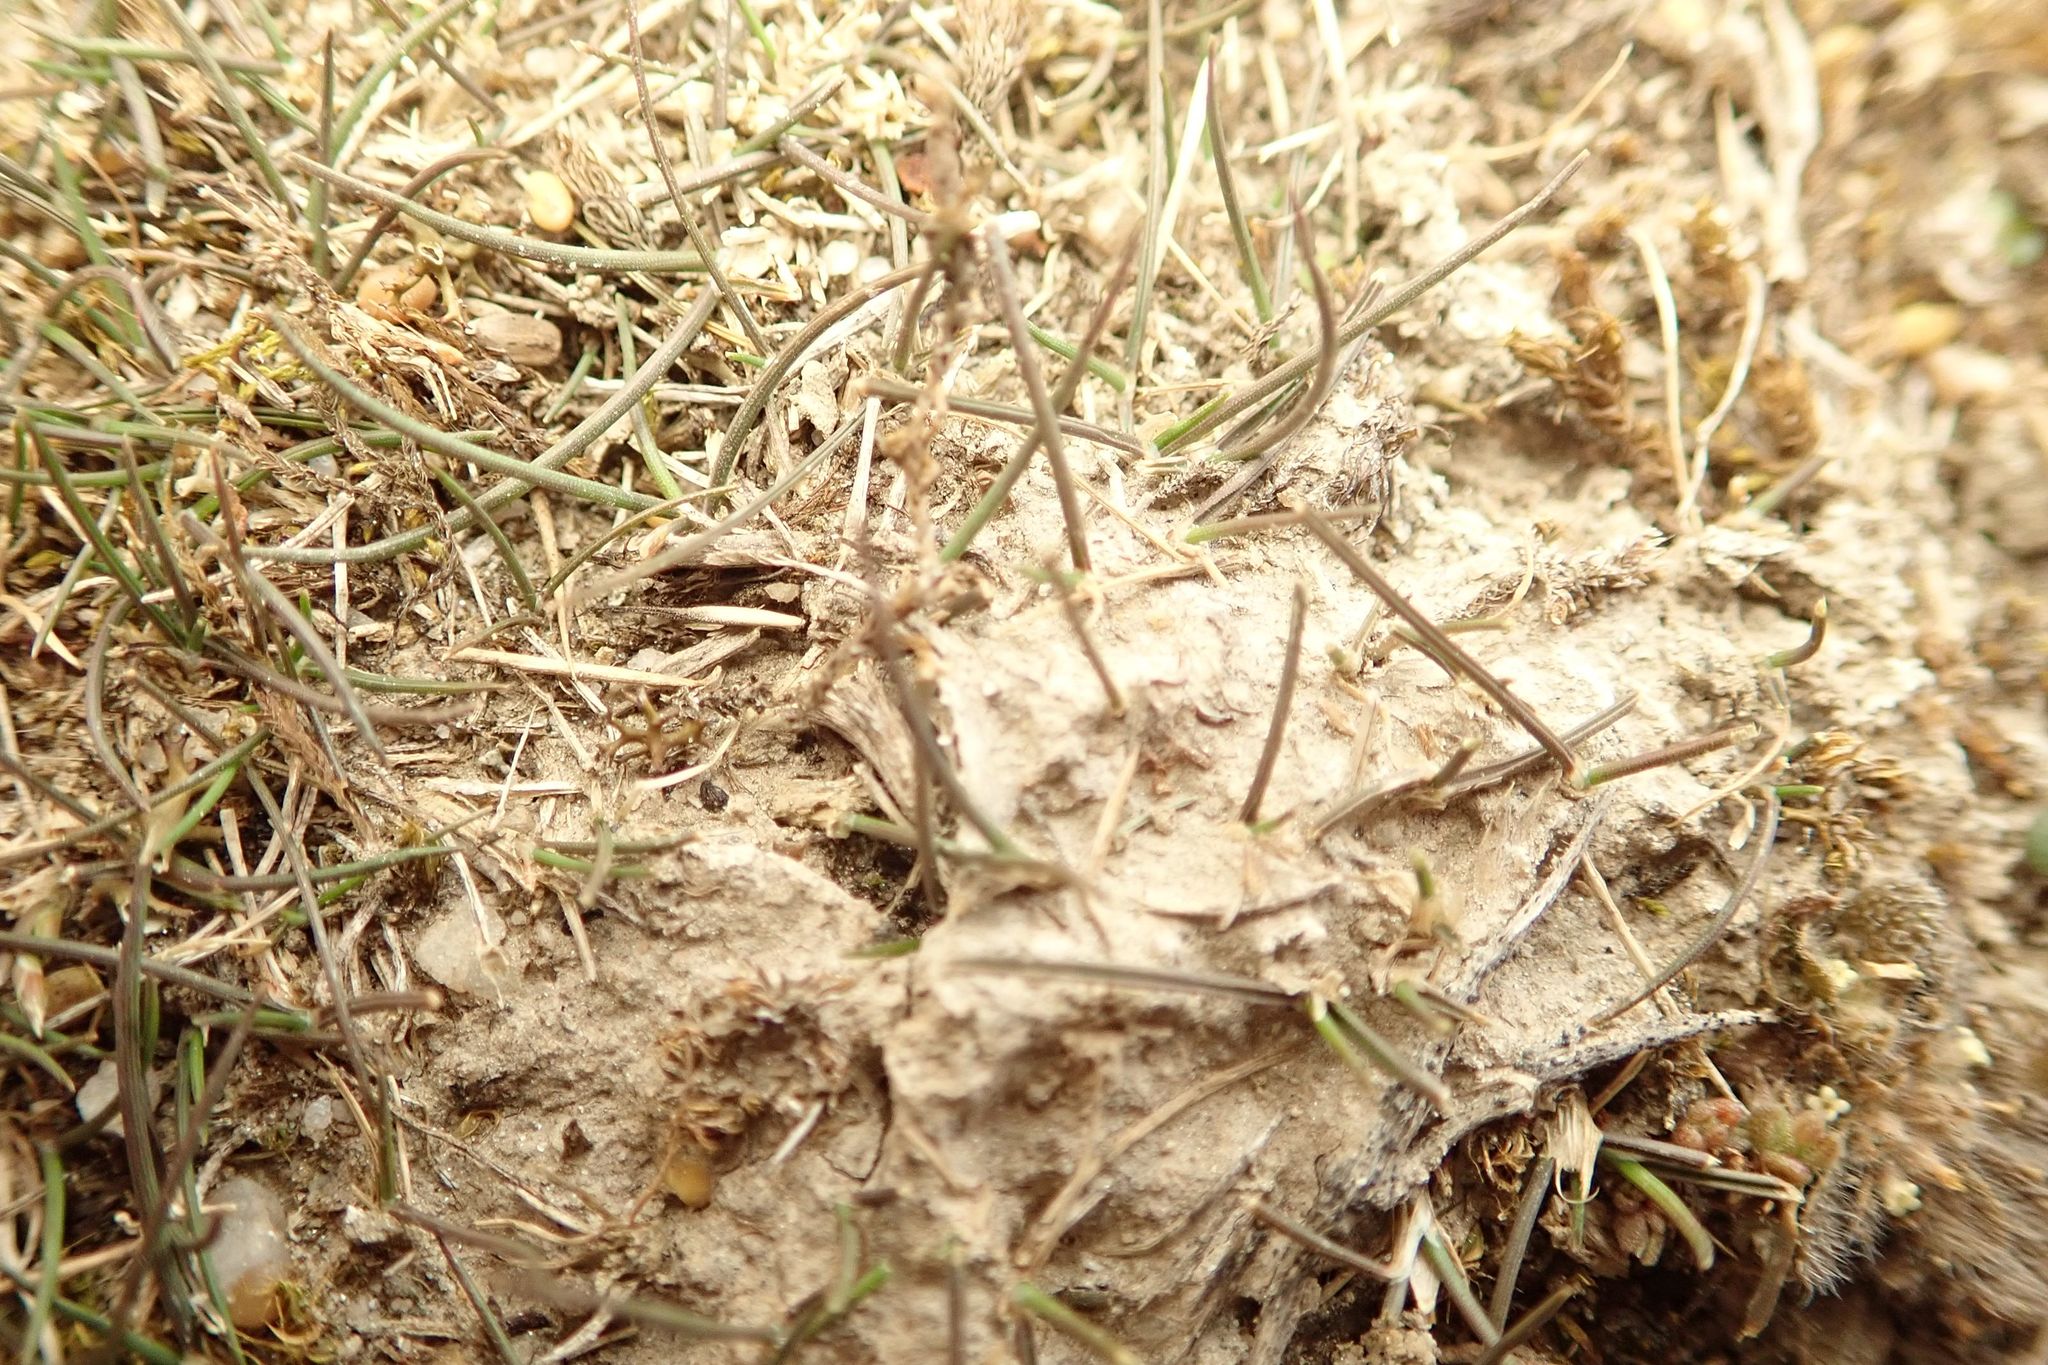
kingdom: Plantae
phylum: Tracheophyta
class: Liliopsida
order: Poales
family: Poaceae
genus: Puccinellia
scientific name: Puccinellia raroflorens
